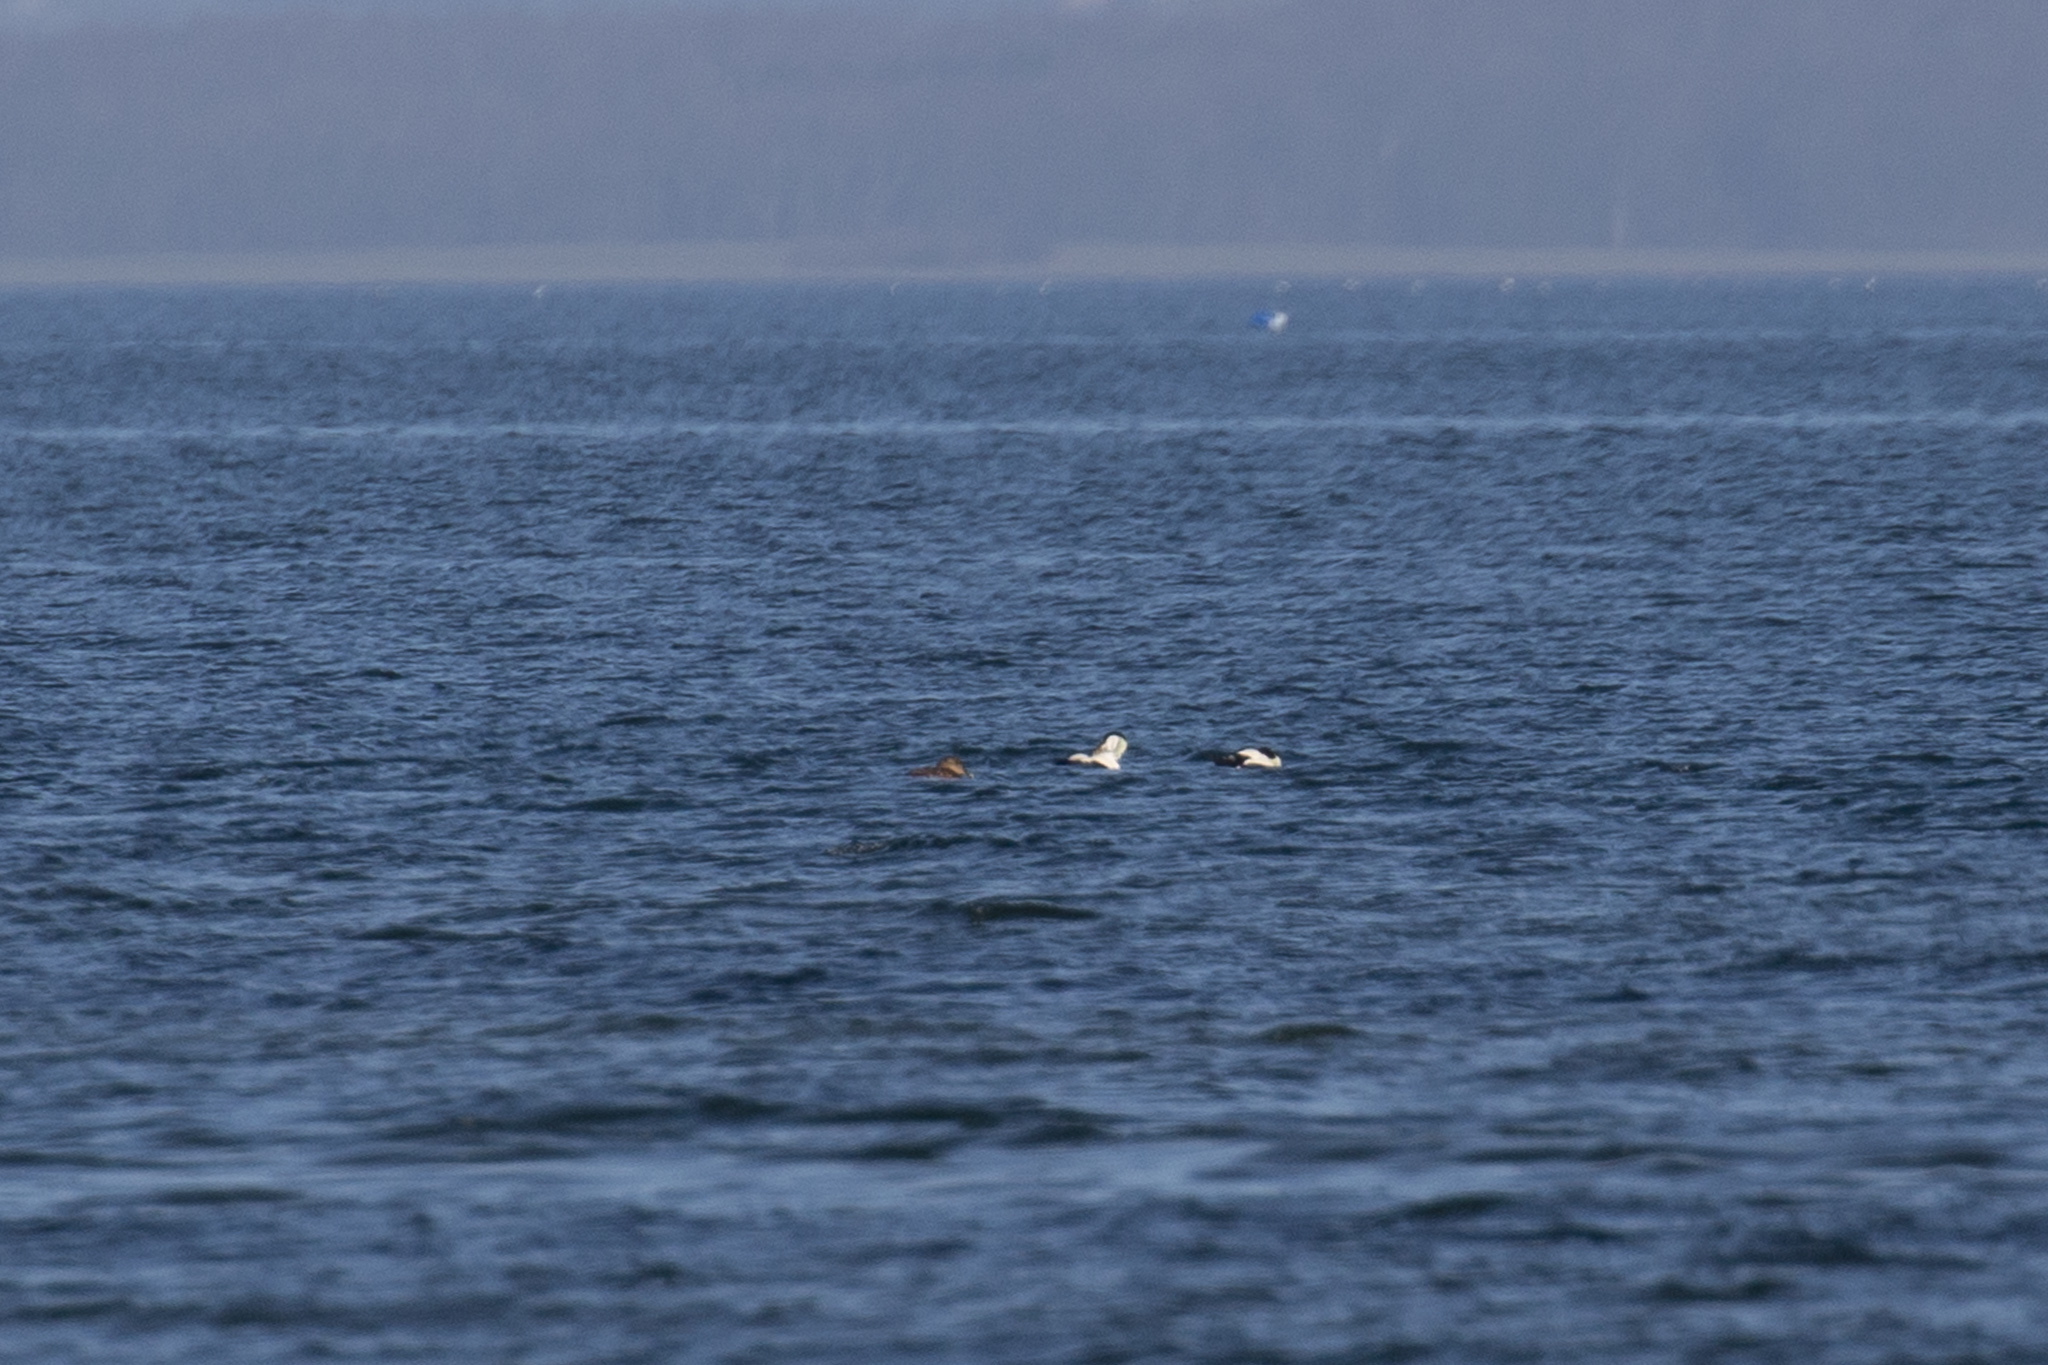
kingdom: Animalia
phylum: Chordata
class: Aves
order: Anseriformes
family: Anatidae
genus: Somateria
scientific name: Somateria mollissima
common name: Common eider
